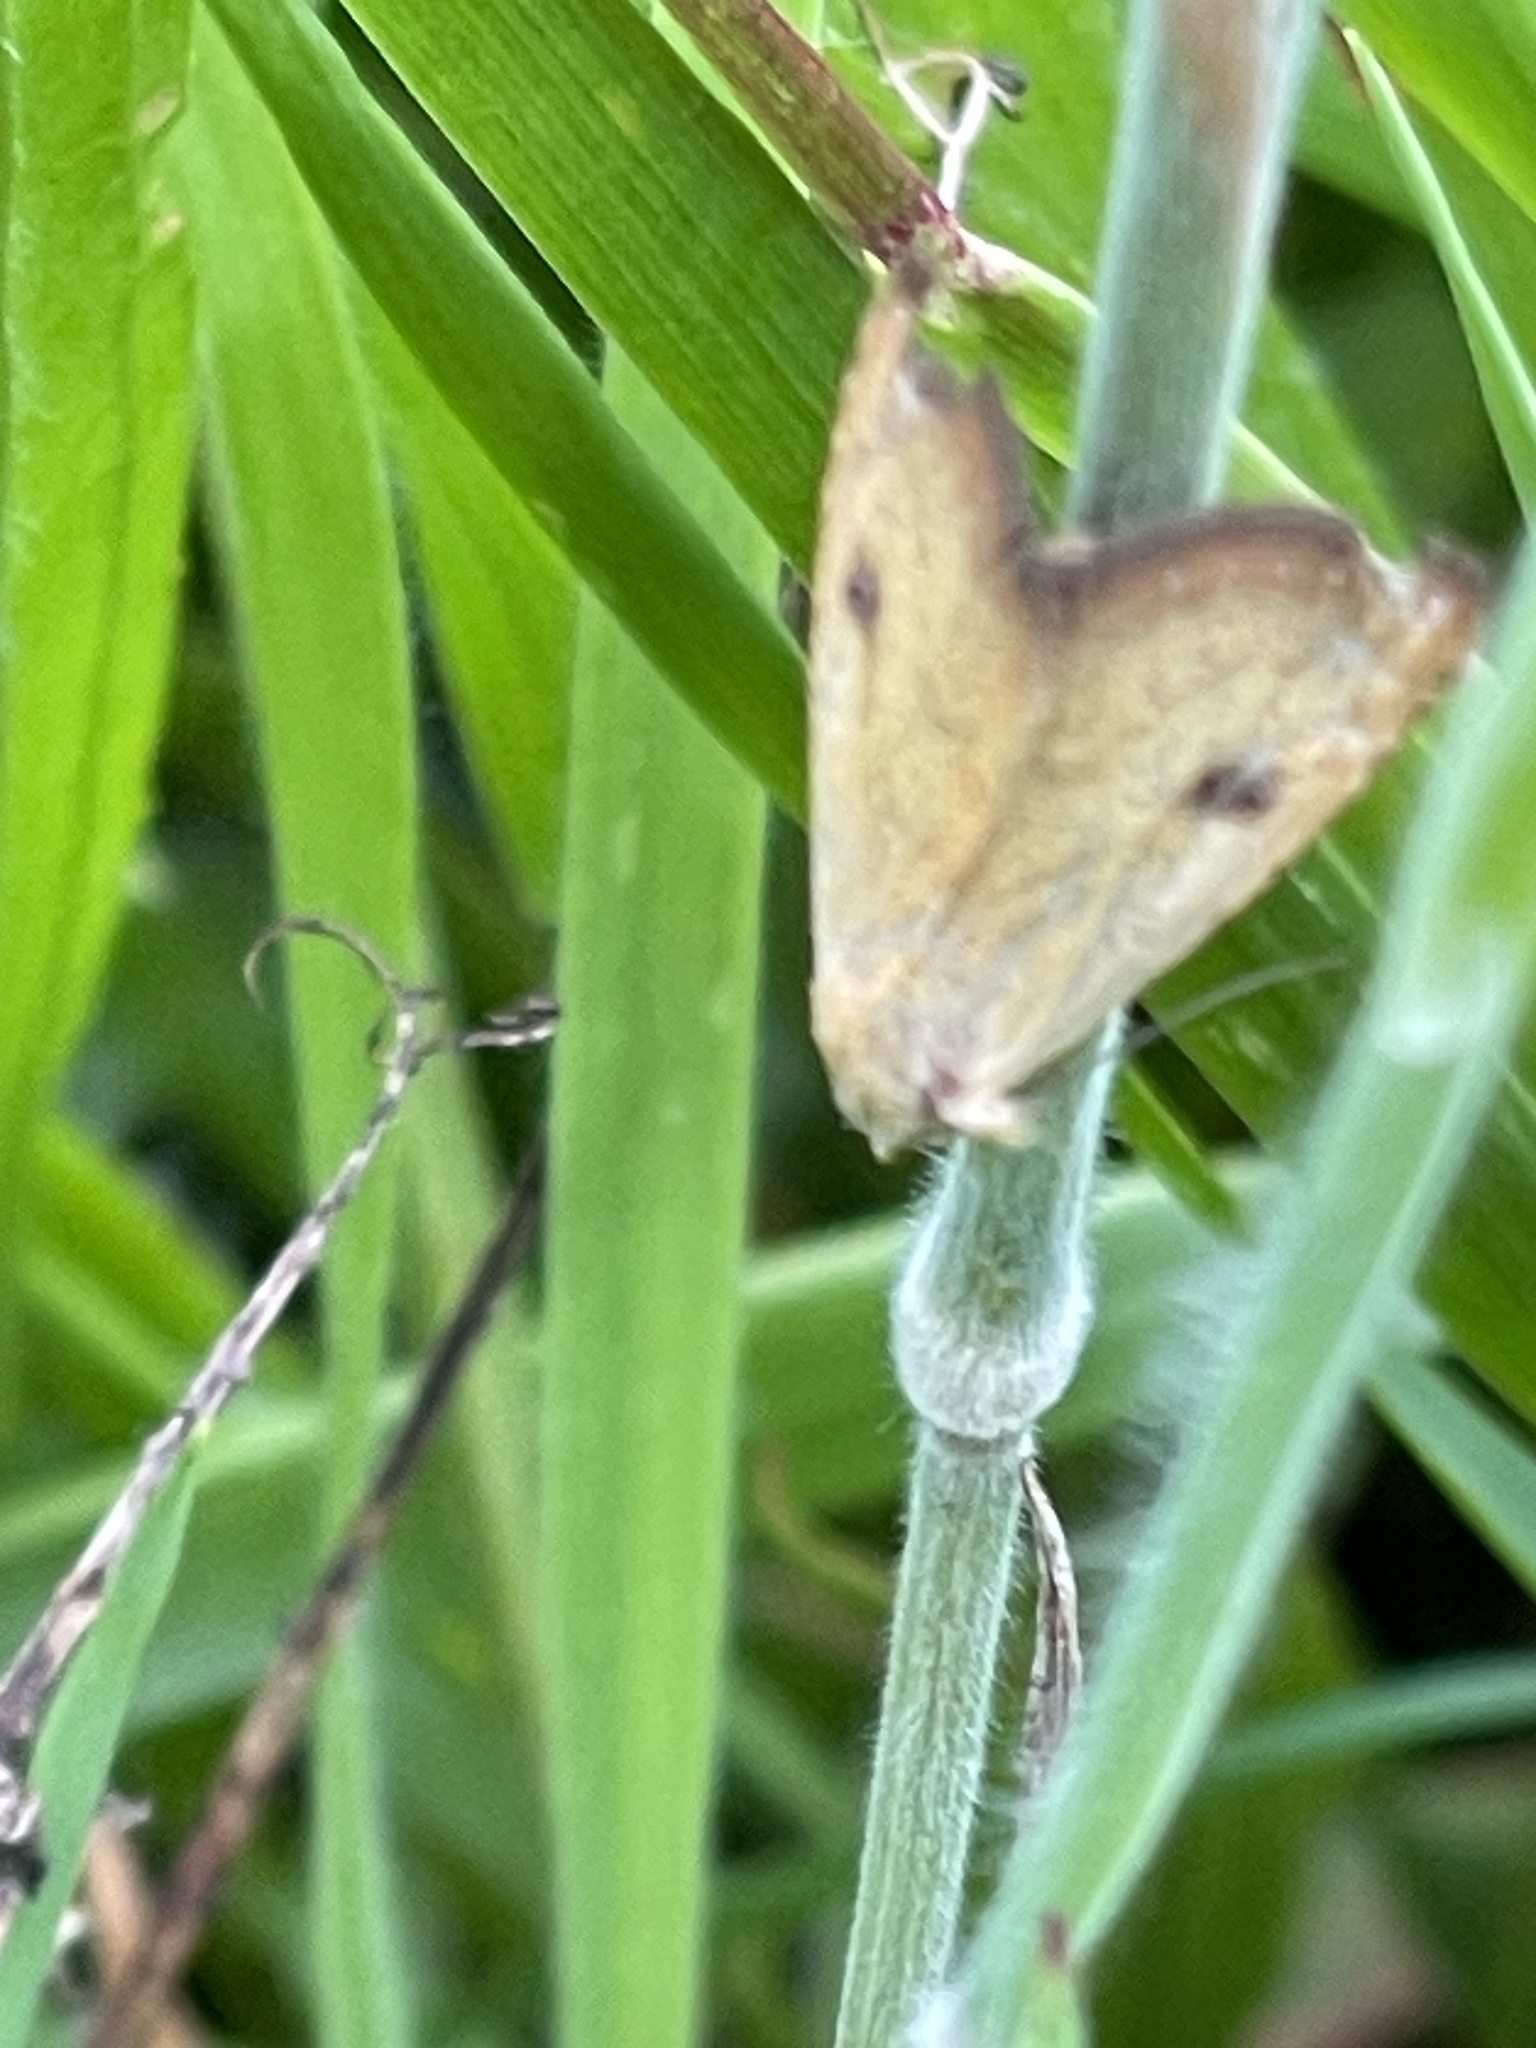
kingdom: Animalia
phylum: Arthropoda
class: Insecta
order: Lepidoptera
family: Erebidae
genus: Rivula
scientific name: Rivula sericealis
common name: Straw dot
